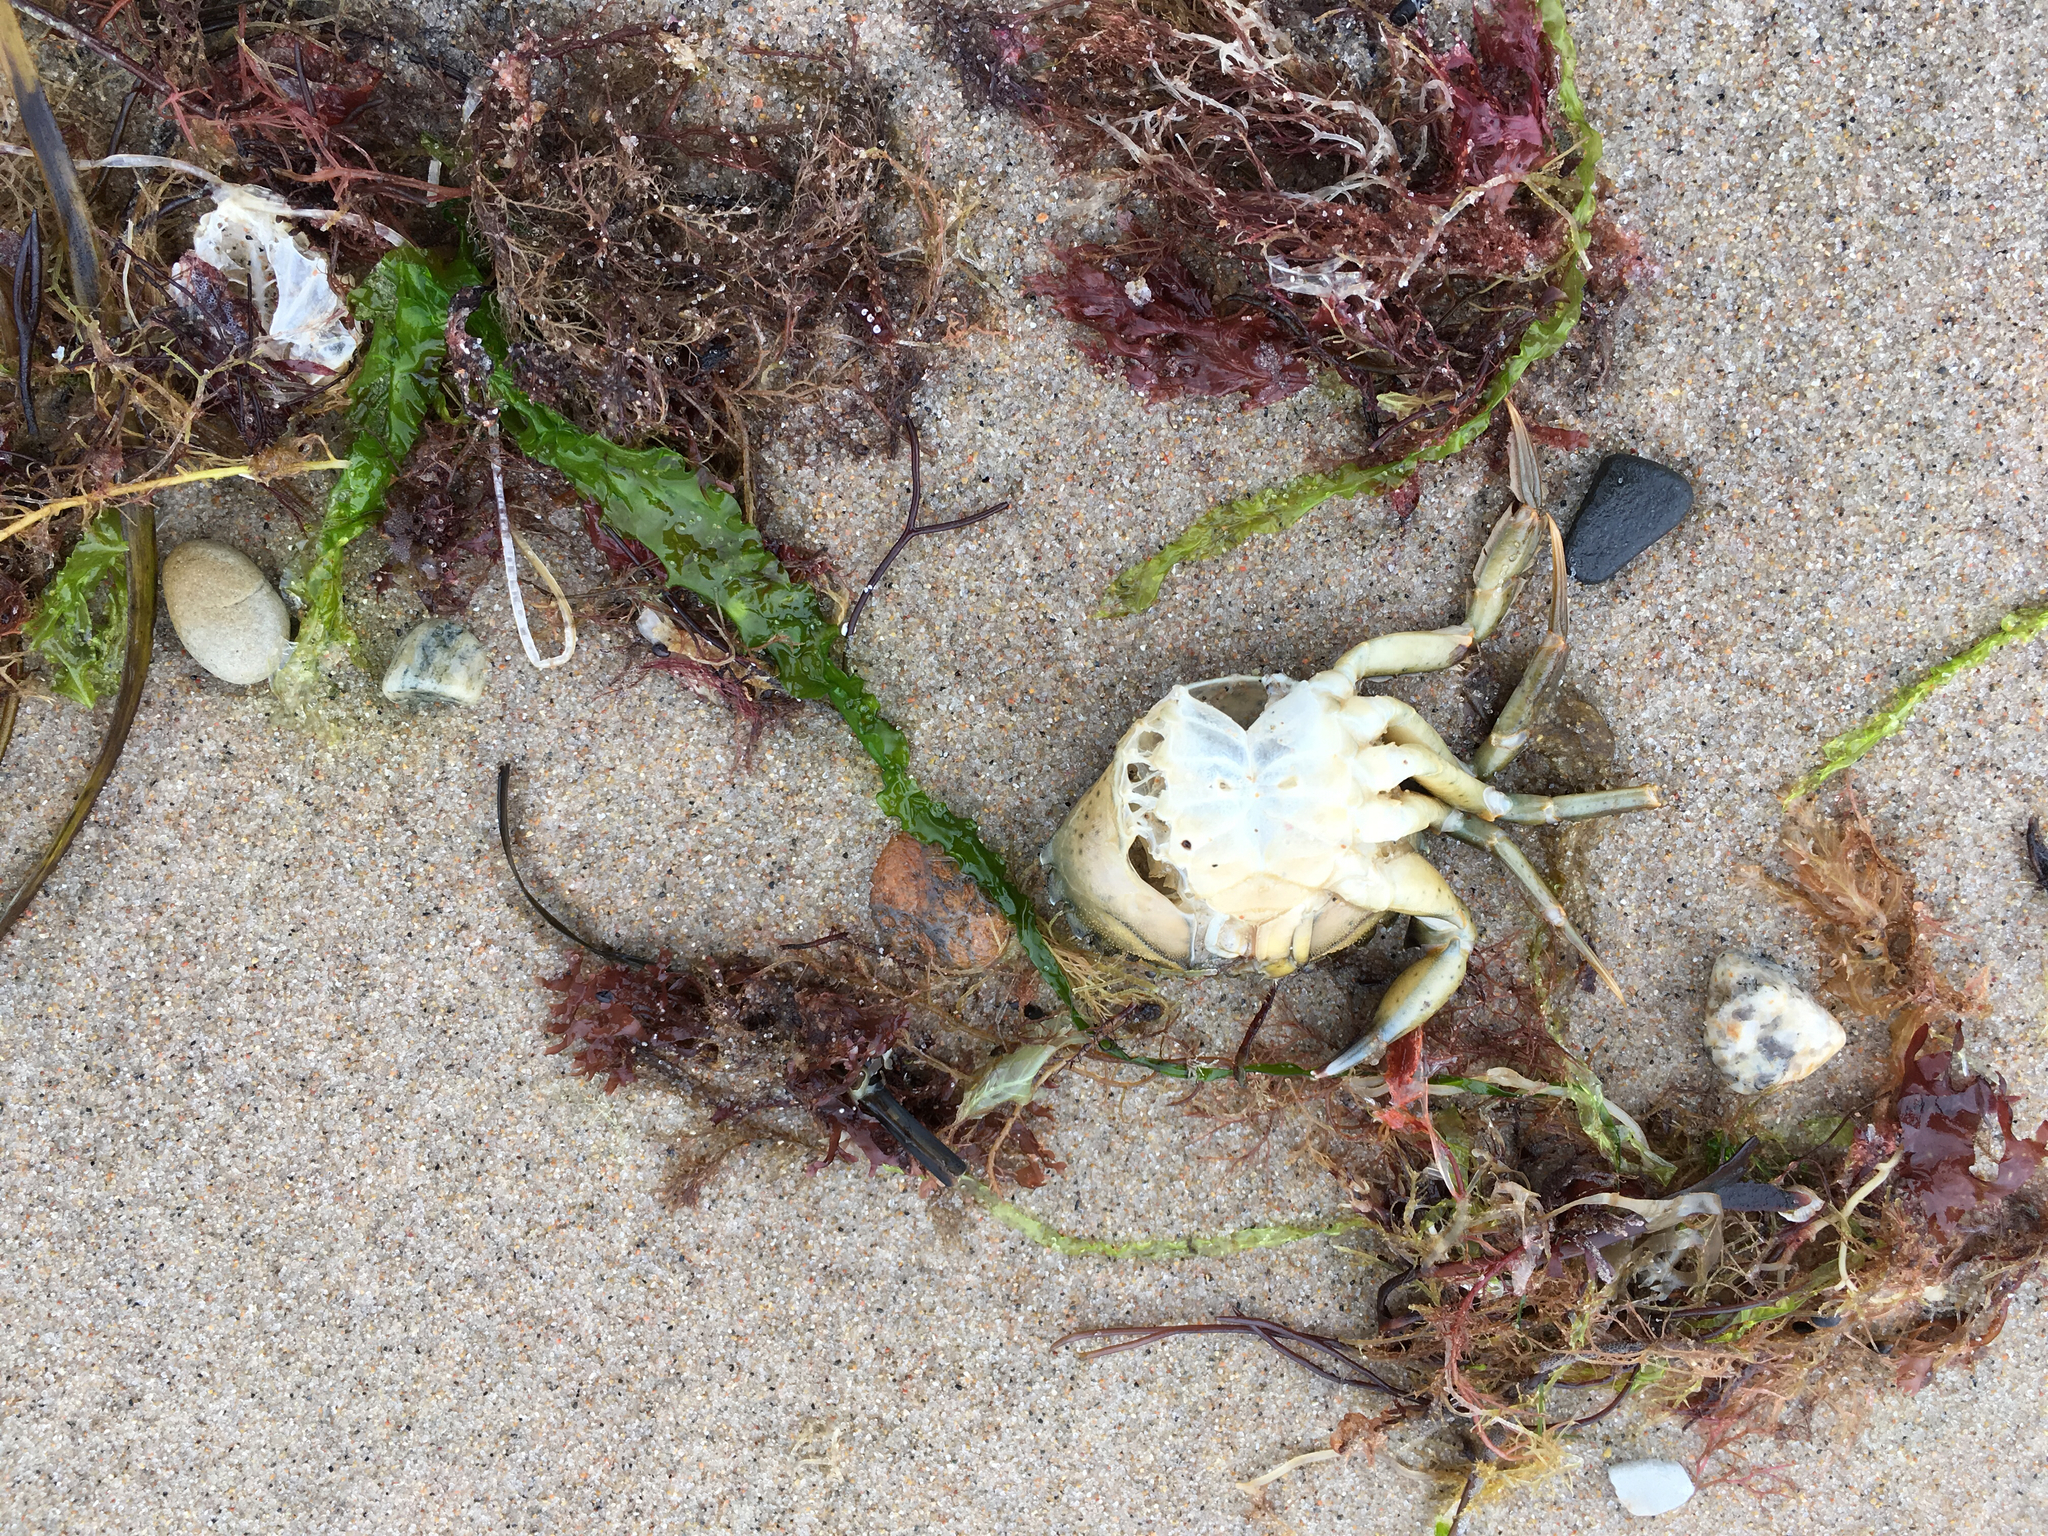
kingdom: Animalia
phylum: Arthropoda
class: Malacostraca
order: Decapoda
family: Carcinidae
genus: Carcinus
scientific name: Carcinus maenas
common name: European green crab
